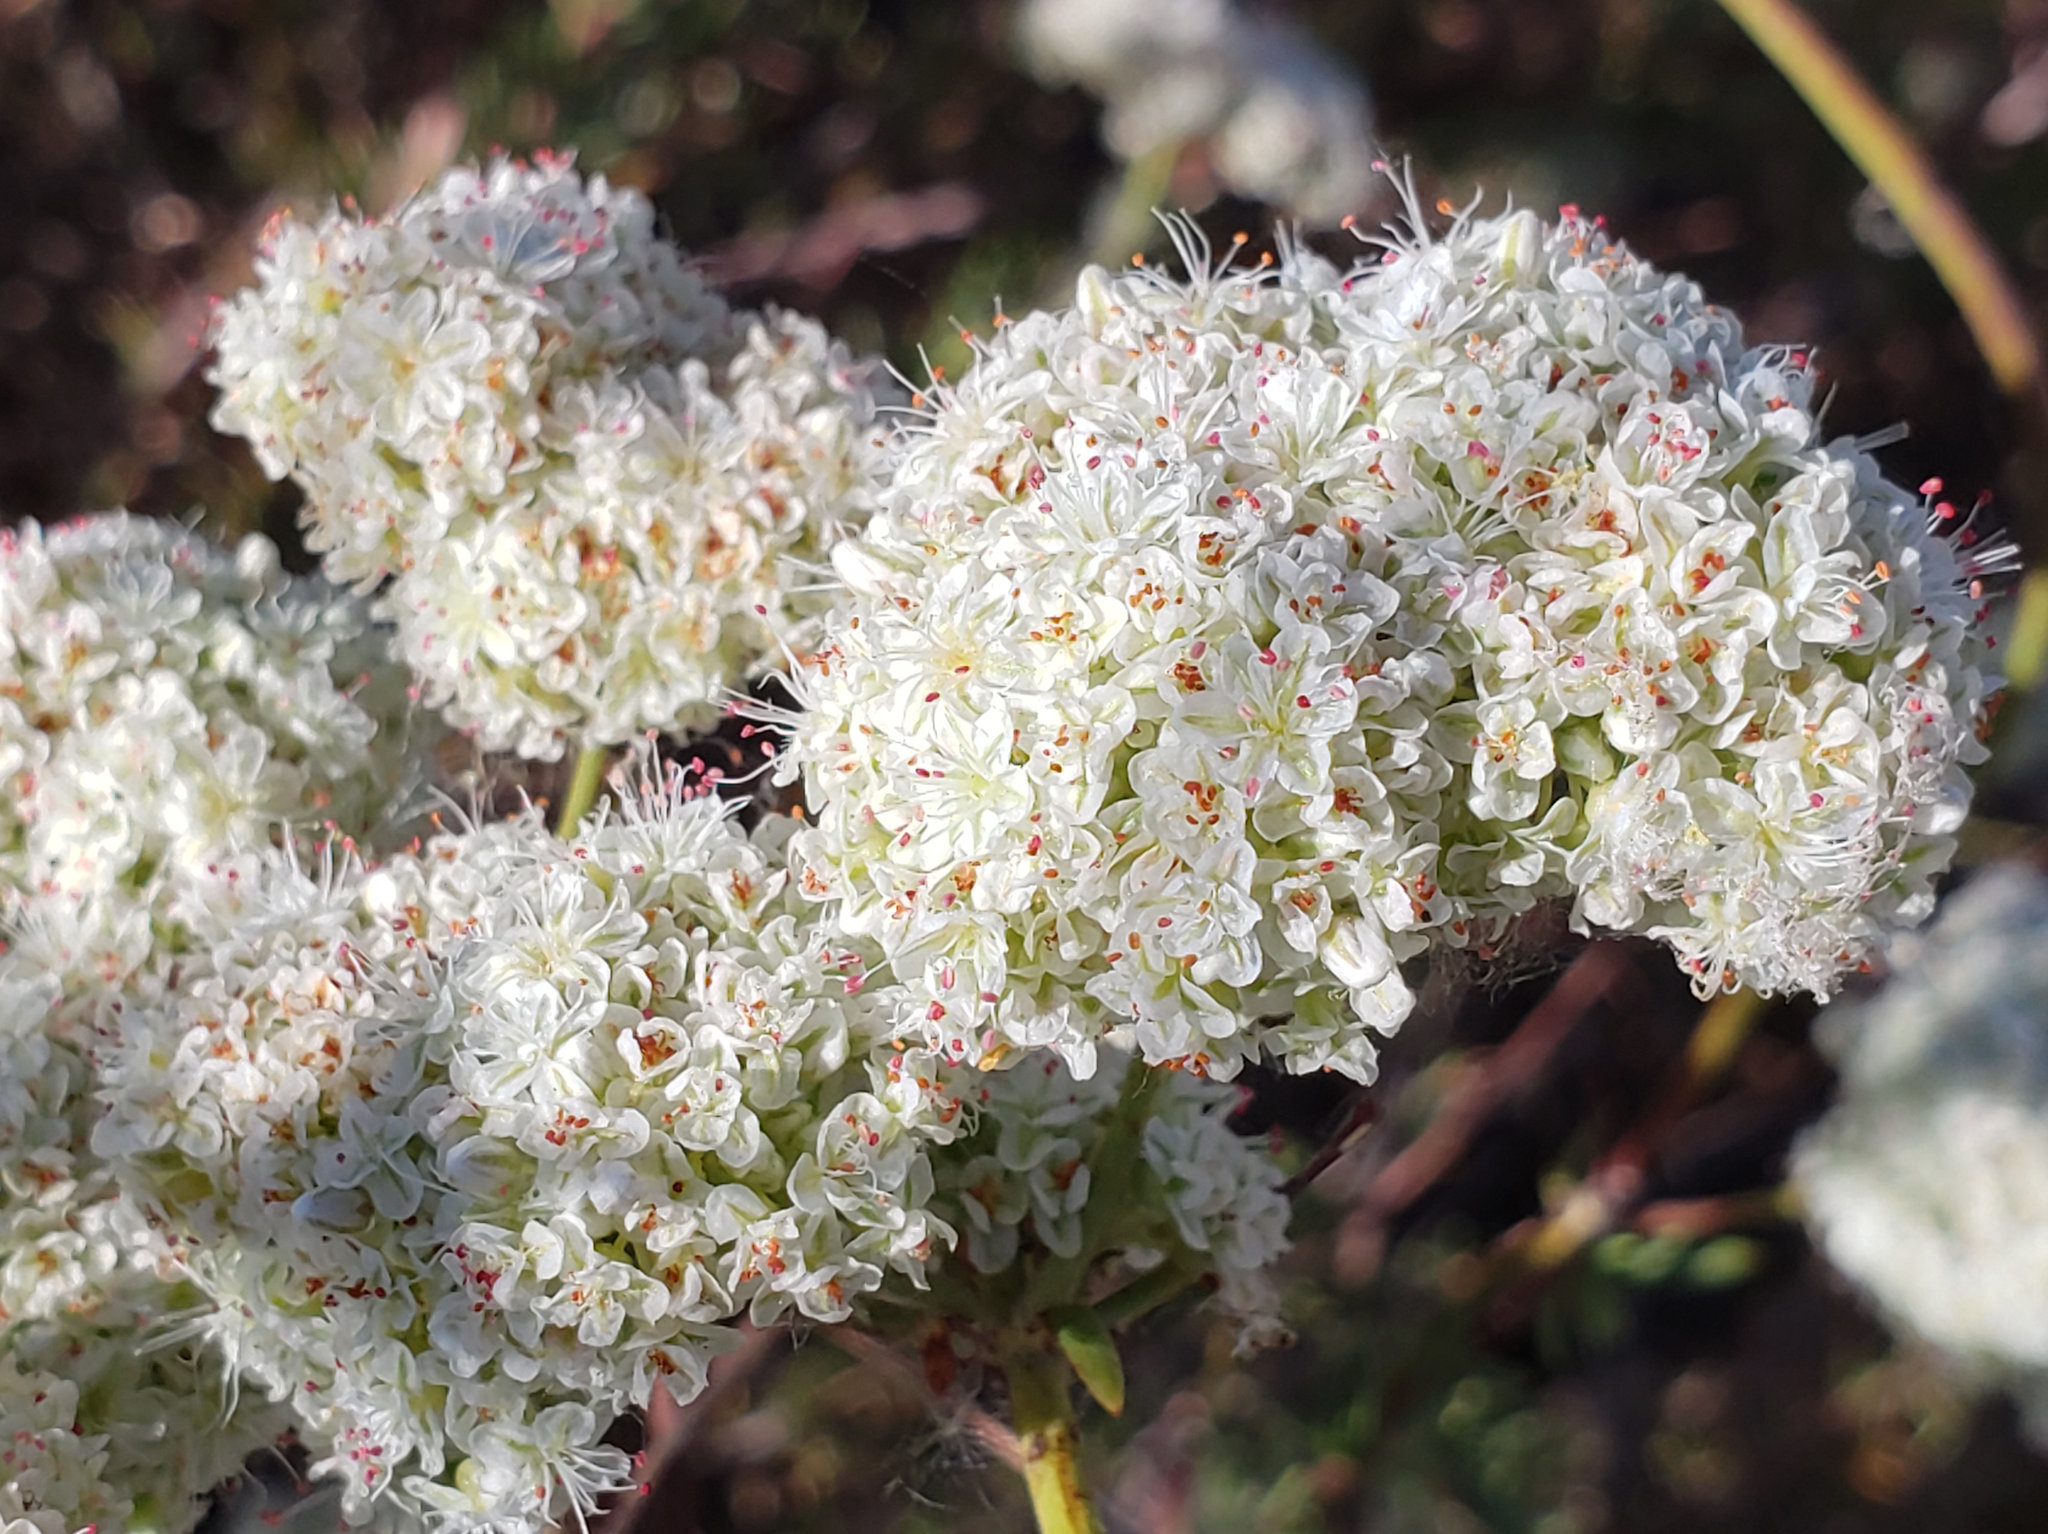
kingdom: Plantae
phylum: Tracheophyta
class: Magnoliopsida
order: Caryophyllales
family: Polygonaceae
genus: Eriogonum
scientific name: Eriogonum fasciculatum
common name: California wild buckwheat
